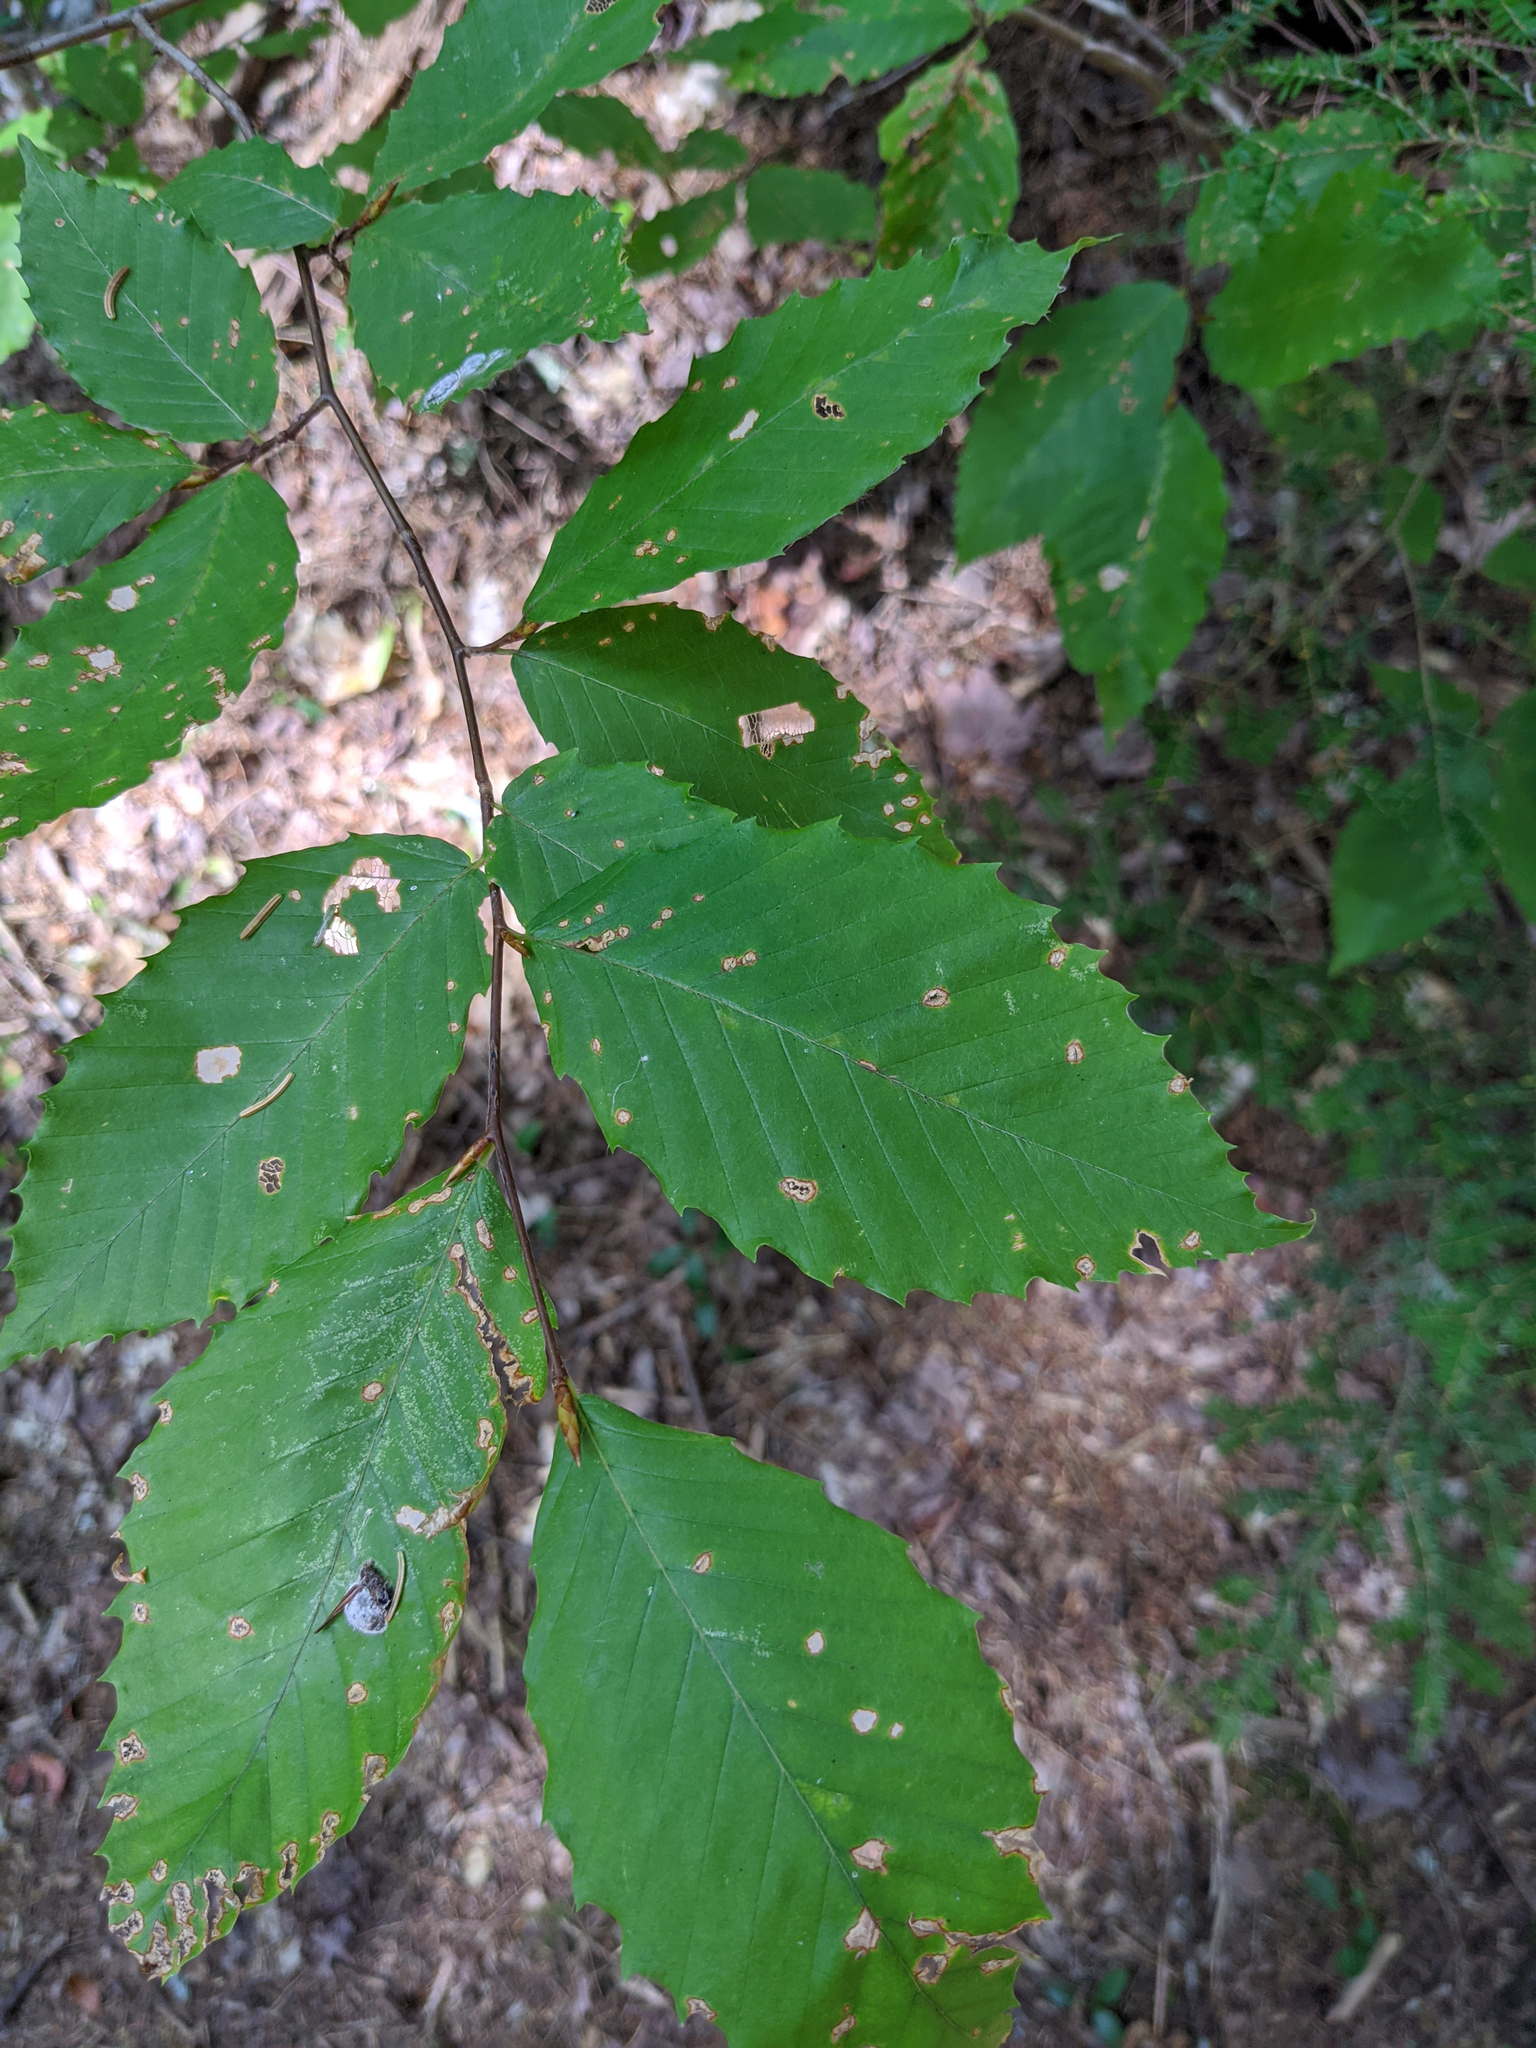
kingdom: Plantae
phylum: Tracheophyta
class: Magnoliopsida
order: Fagales
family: Fagaceae
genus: Fagus
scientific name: Fagus grandifolia
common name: American beech
